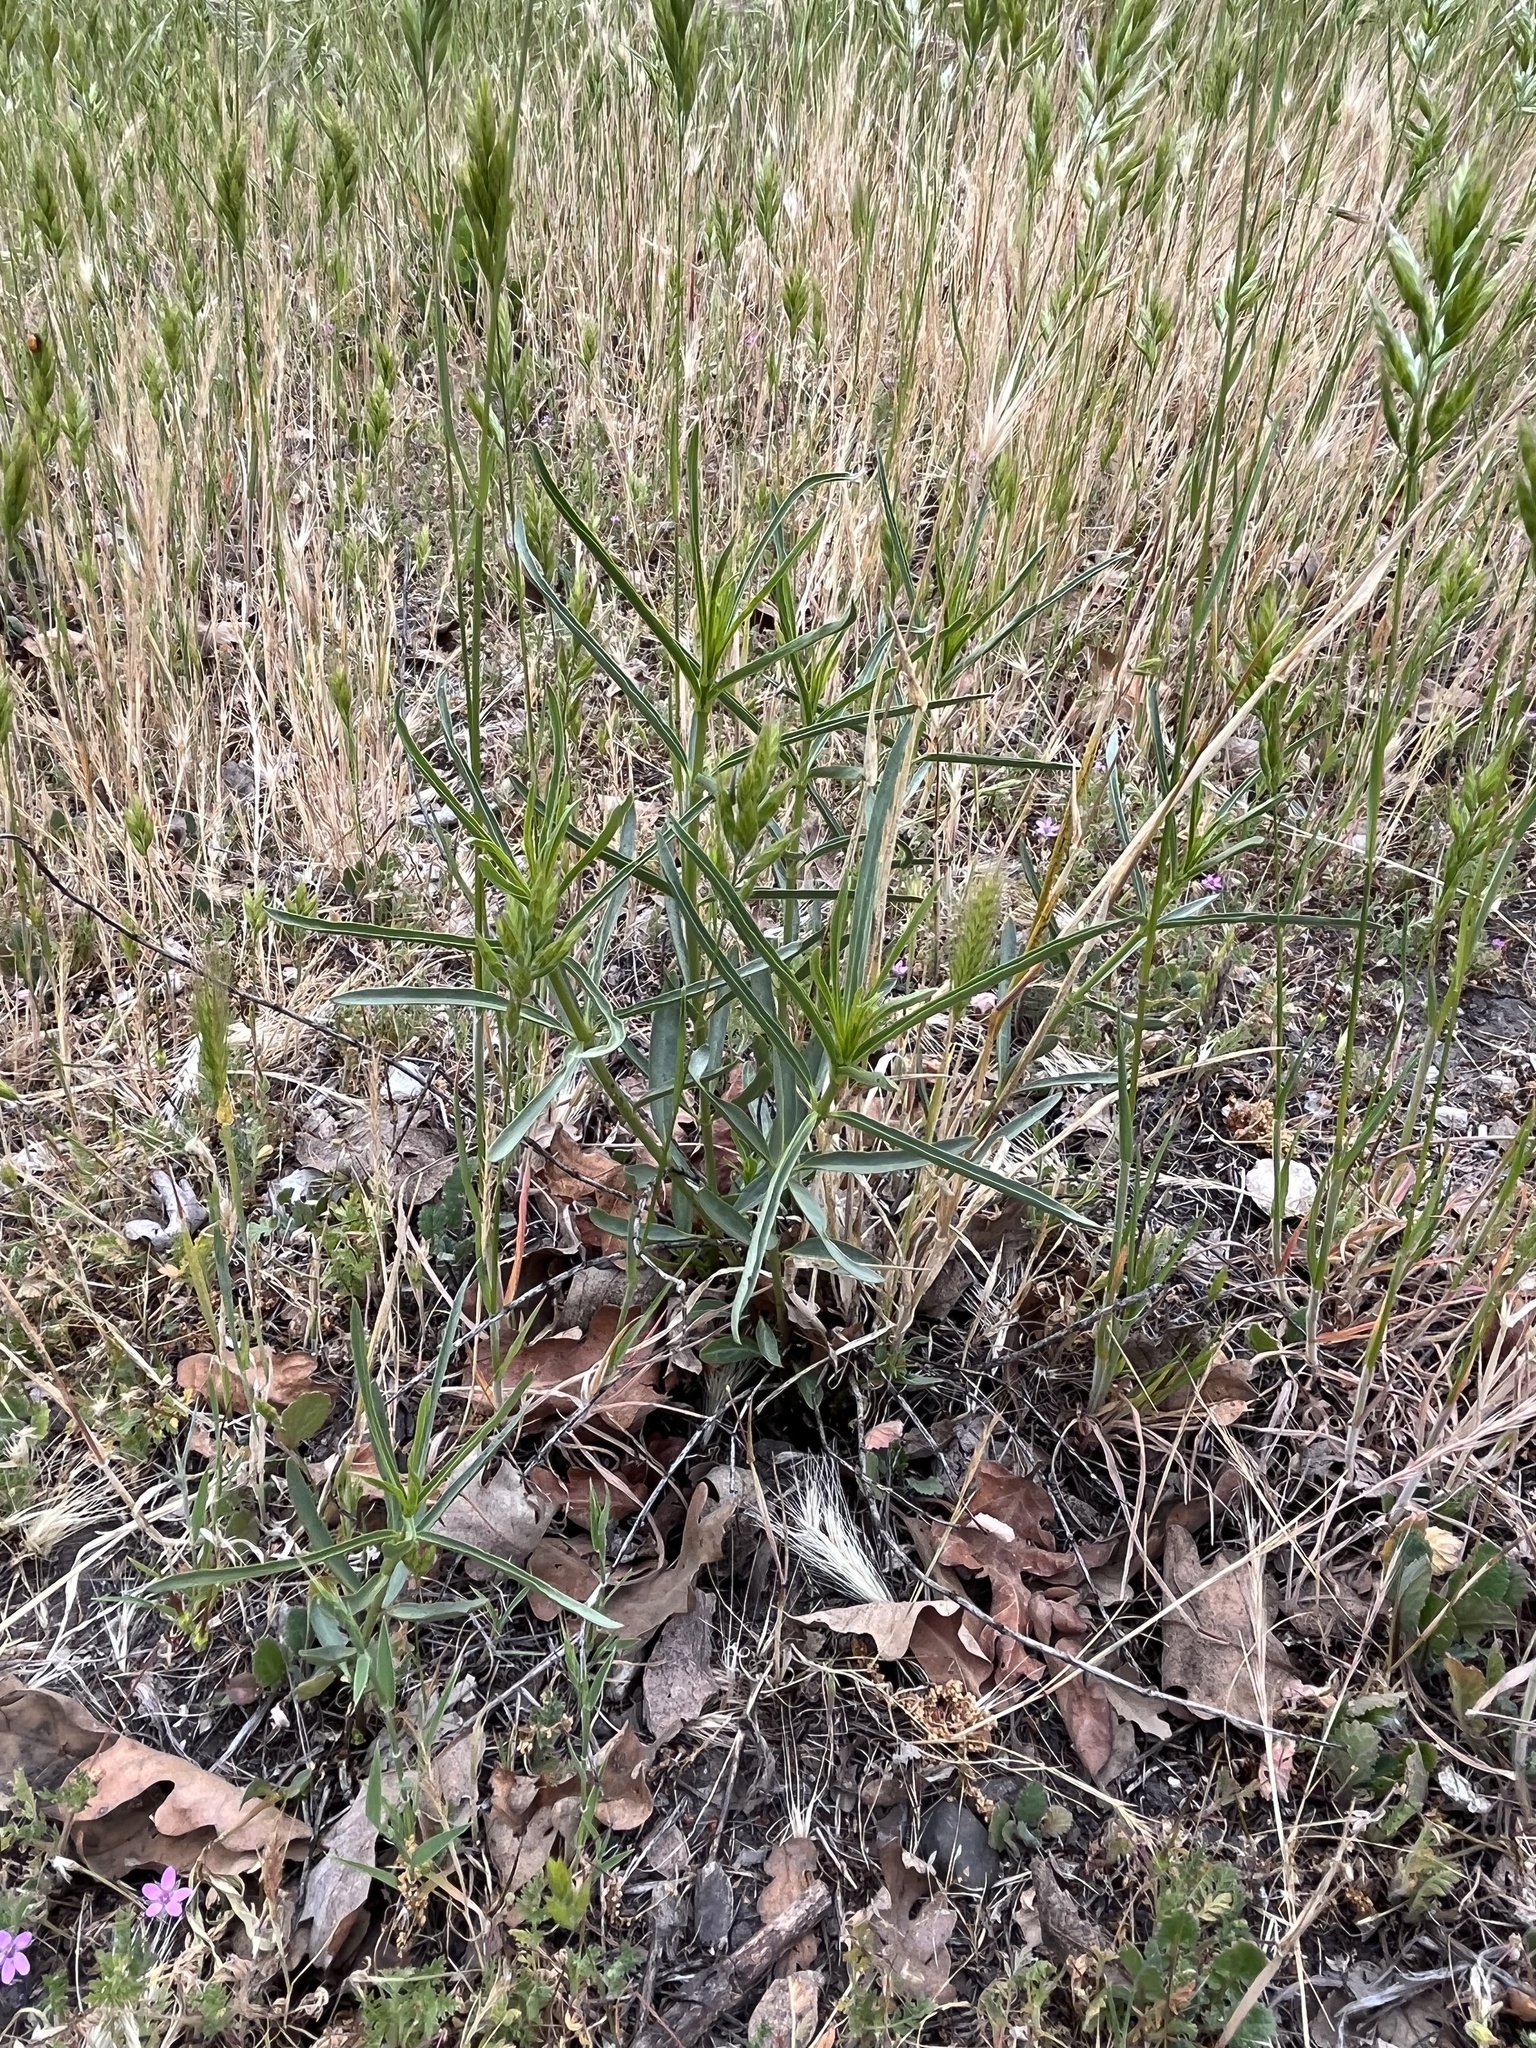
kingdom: Plantae
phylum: Tracheophyta
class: Magnoliopsida
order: Gentianales
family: Apocynaceae
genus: Asclepias
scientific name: Asclepias fascicularis
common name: Mexican milkweed
